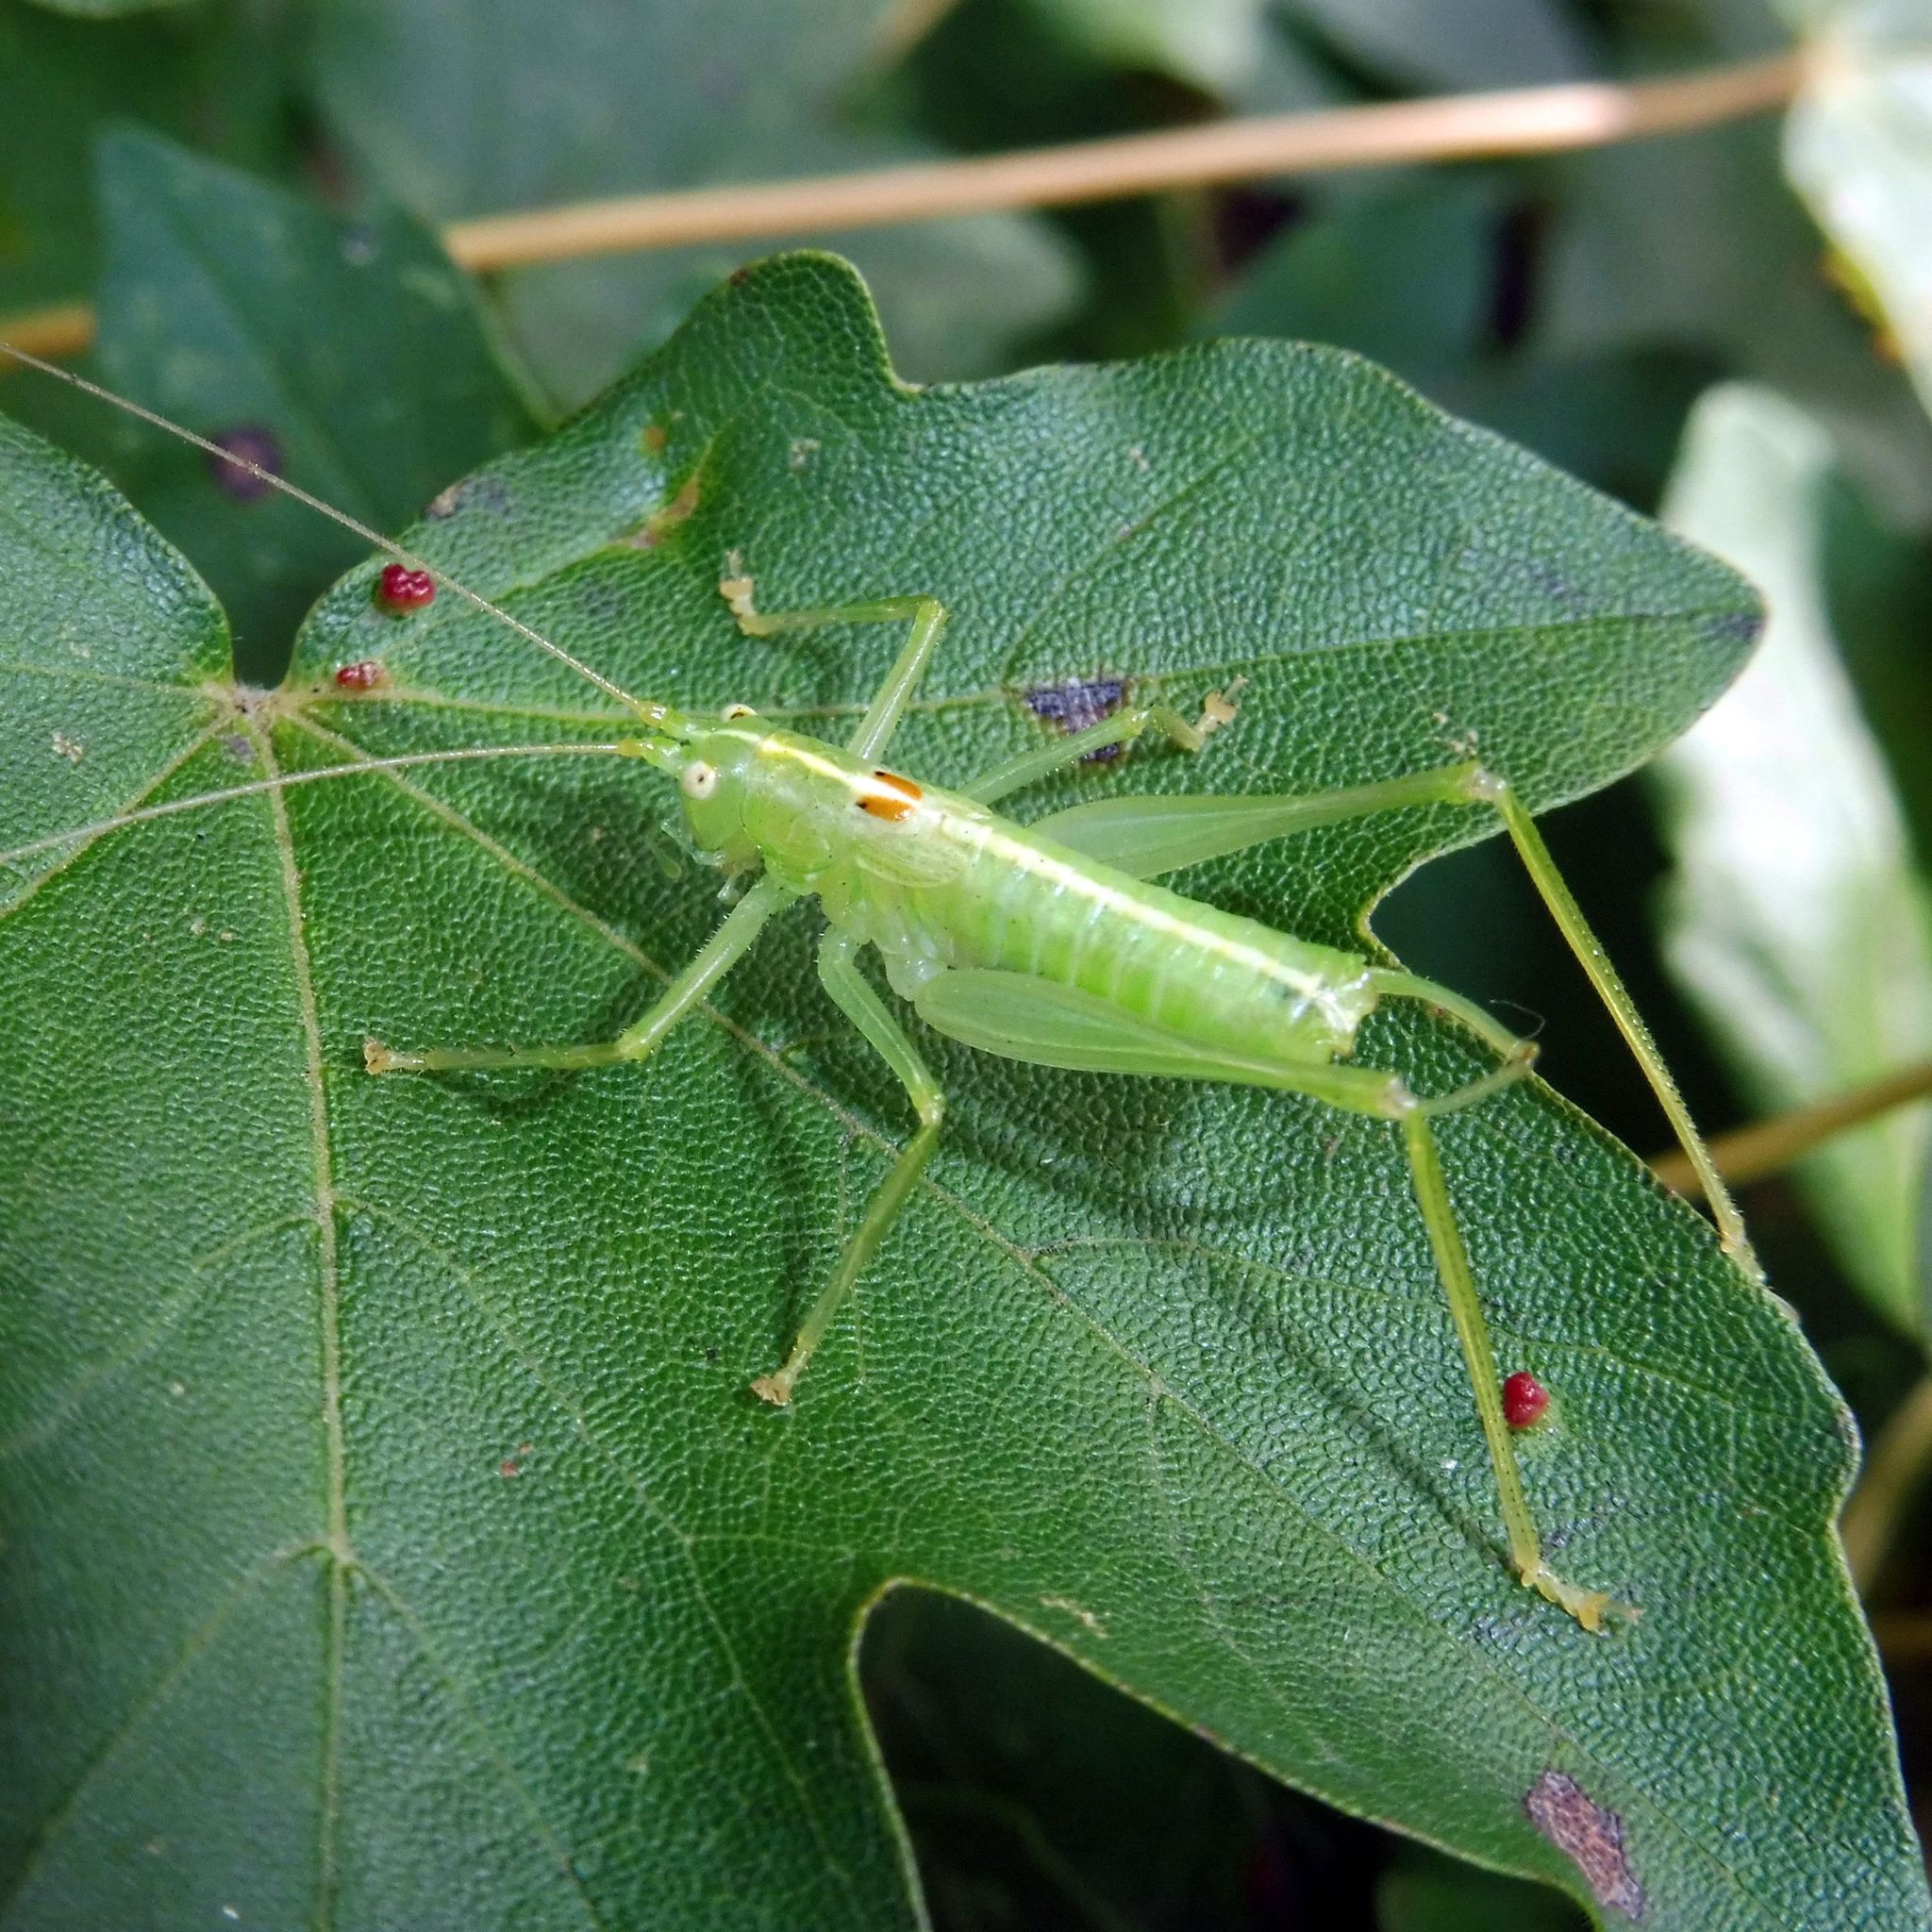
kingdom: Animalia
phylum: Arthropoda
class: Insecta
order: Orthoptera
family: Tettigoniidae
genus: Meconema
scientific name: Meconema meridionale
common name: Southern oak bush-cricket
